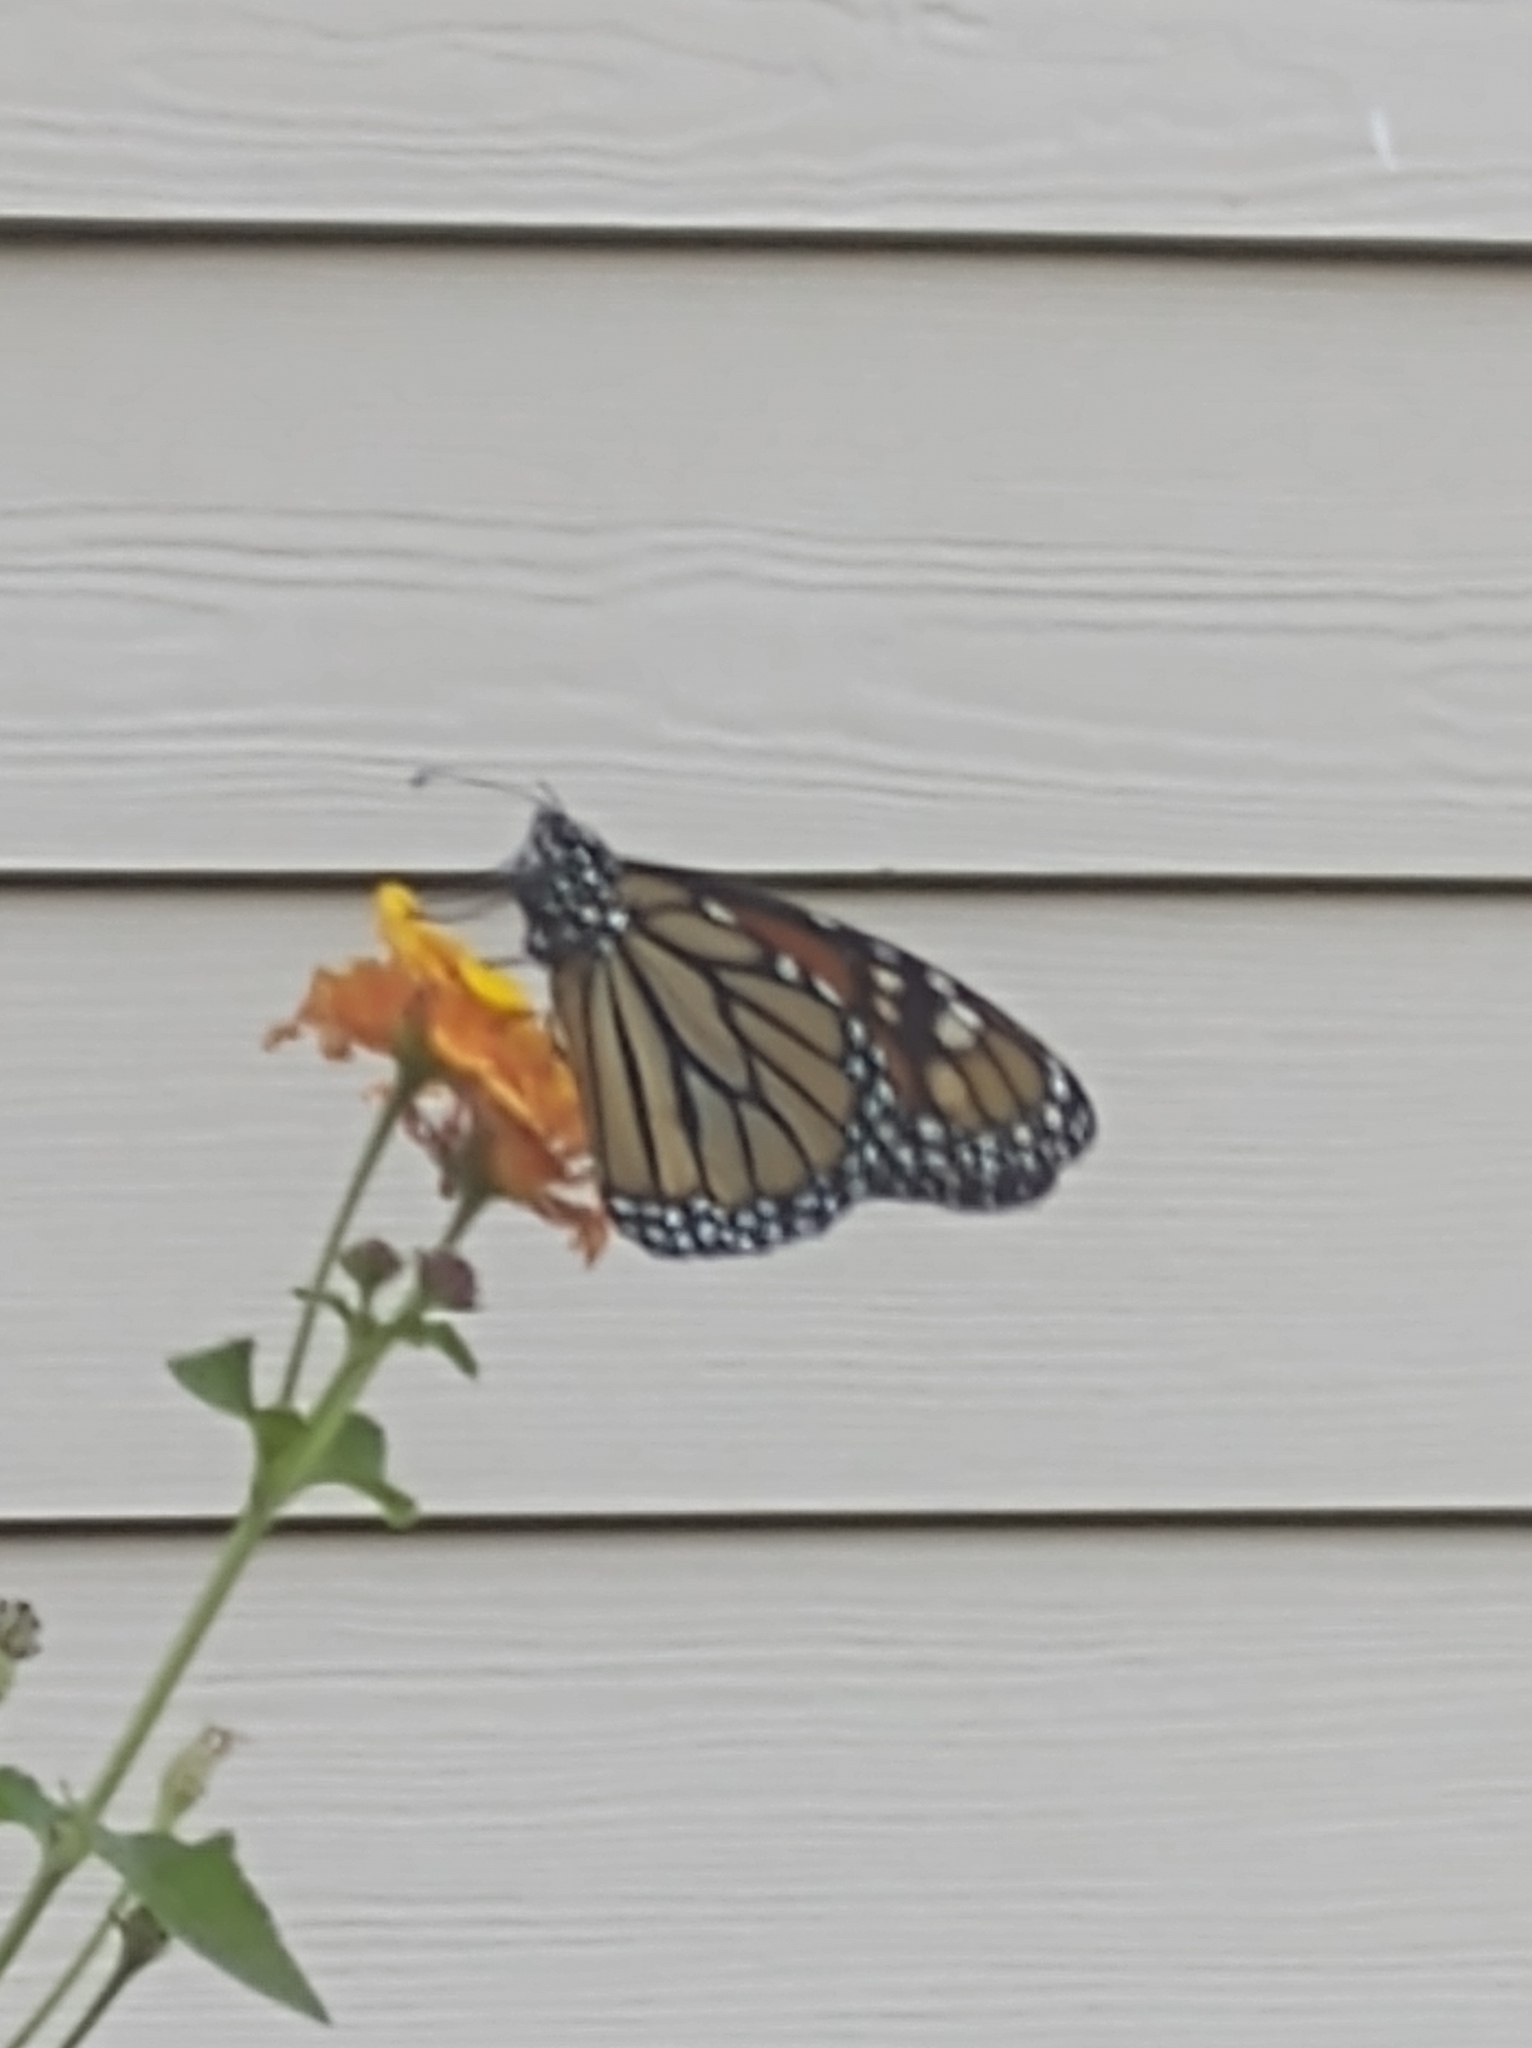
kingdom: Animalia
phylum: Arthropoda
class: Insecta
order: Lepidoptera
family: Nymphalidae
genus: Danaus
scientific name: Danaus plexippus
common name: Monarch
